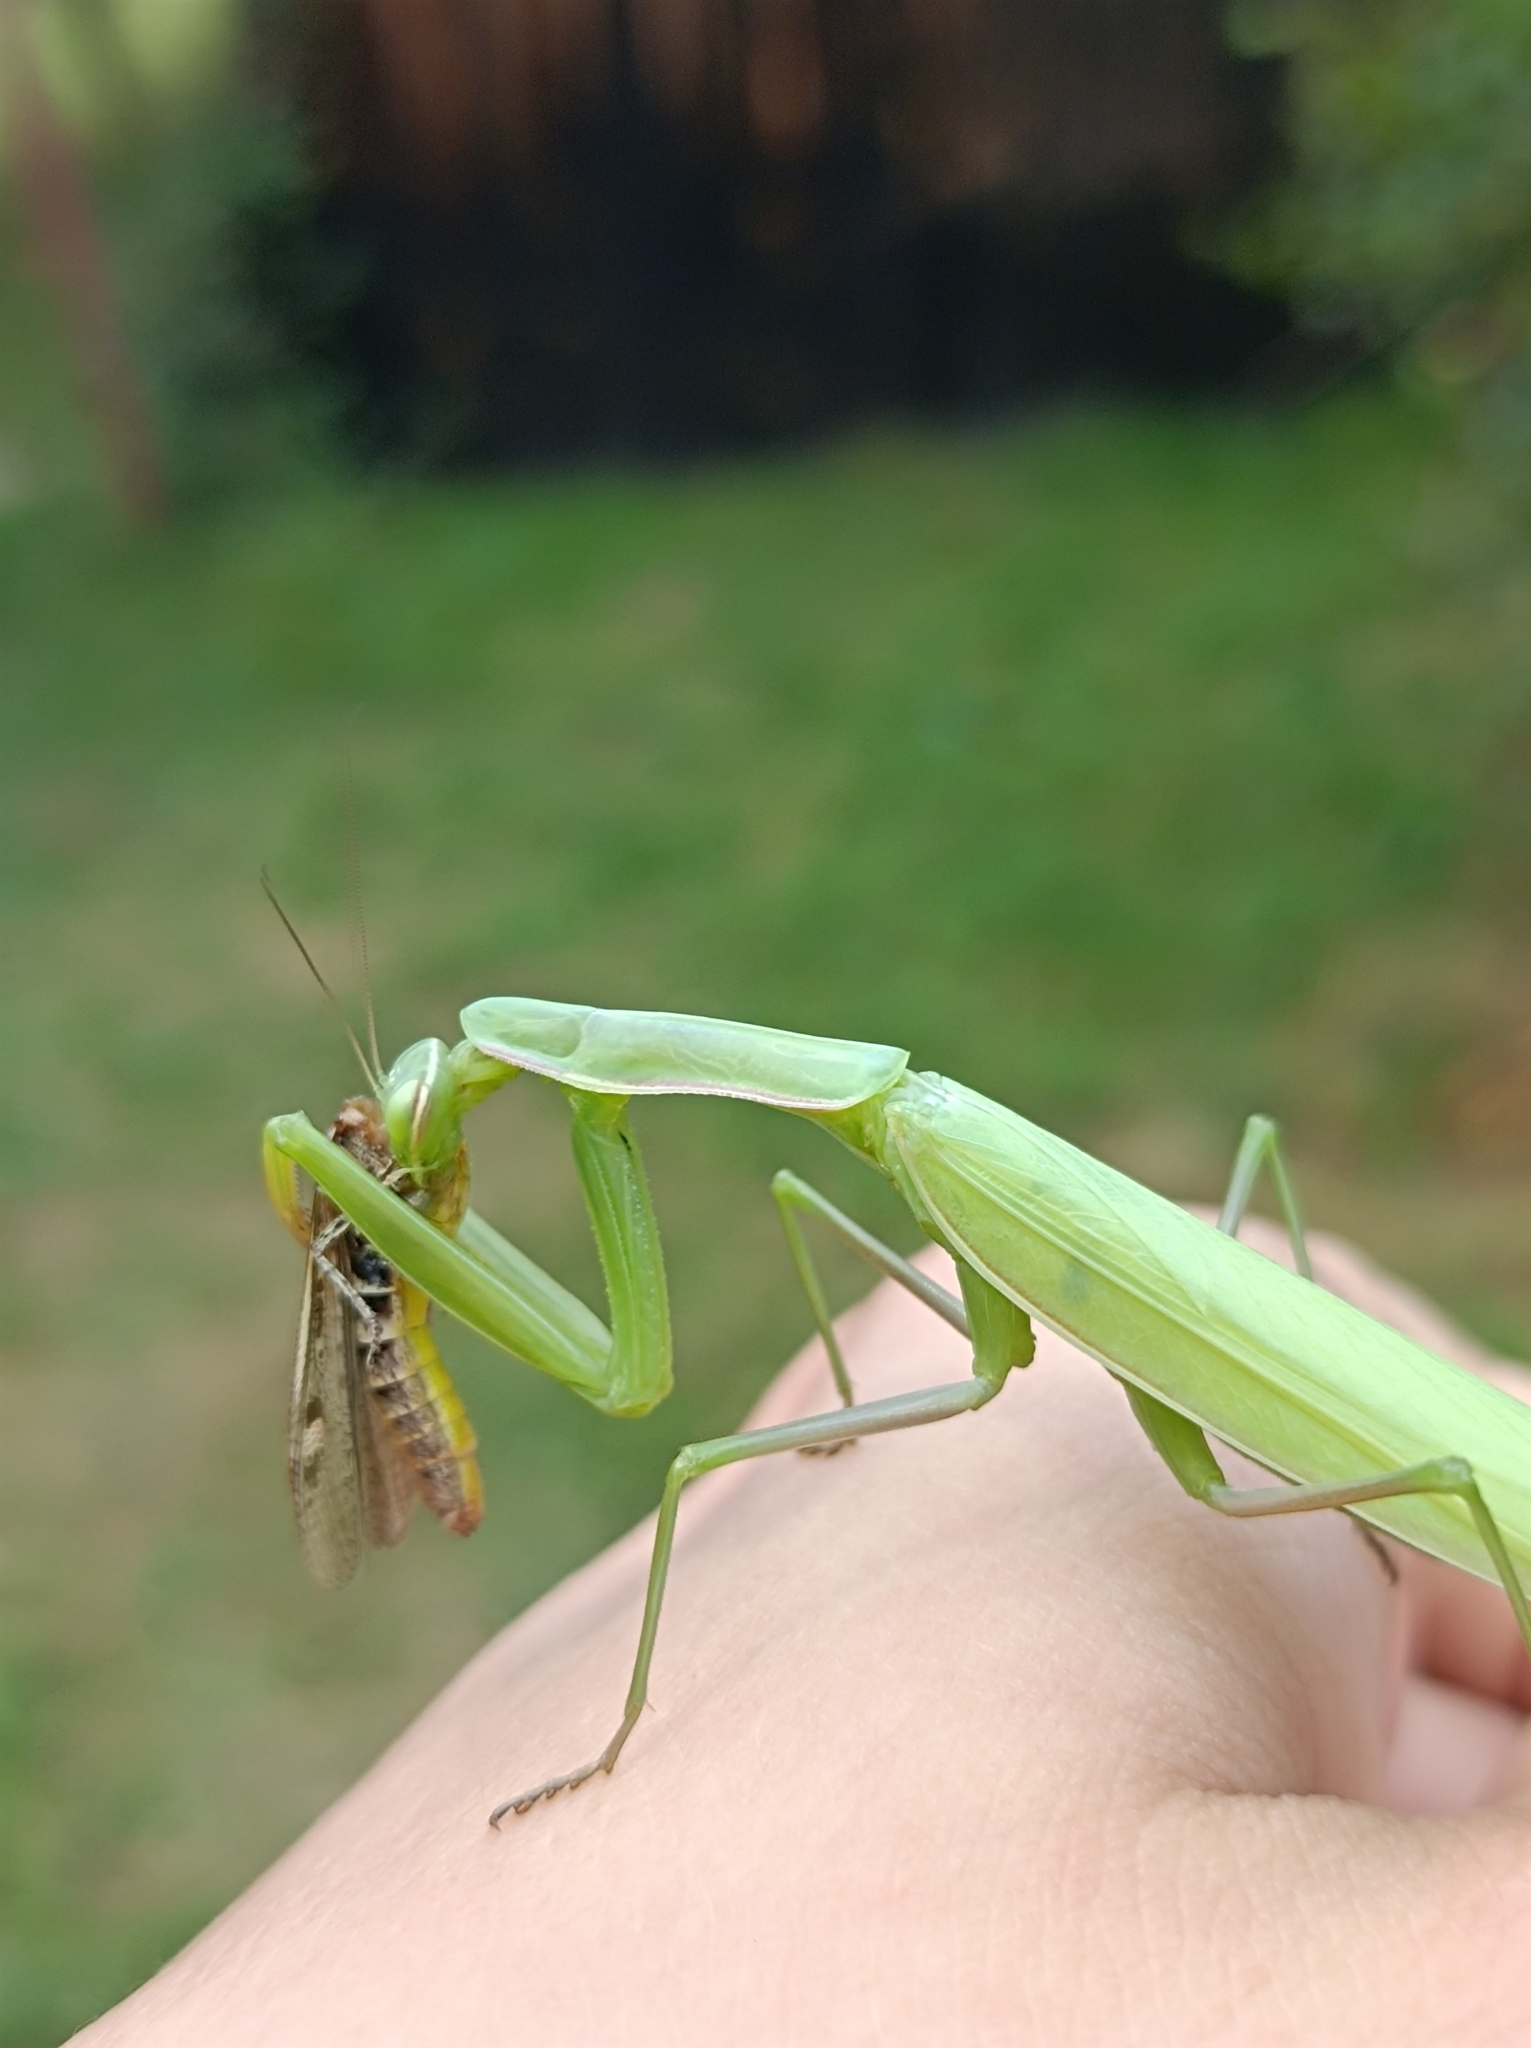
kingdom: Animalia
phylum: Arthropoda
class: Insecta
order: Mantodea
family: Mantidae
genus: Mantis
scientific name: Mantis religiosa
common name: Praying mantis
